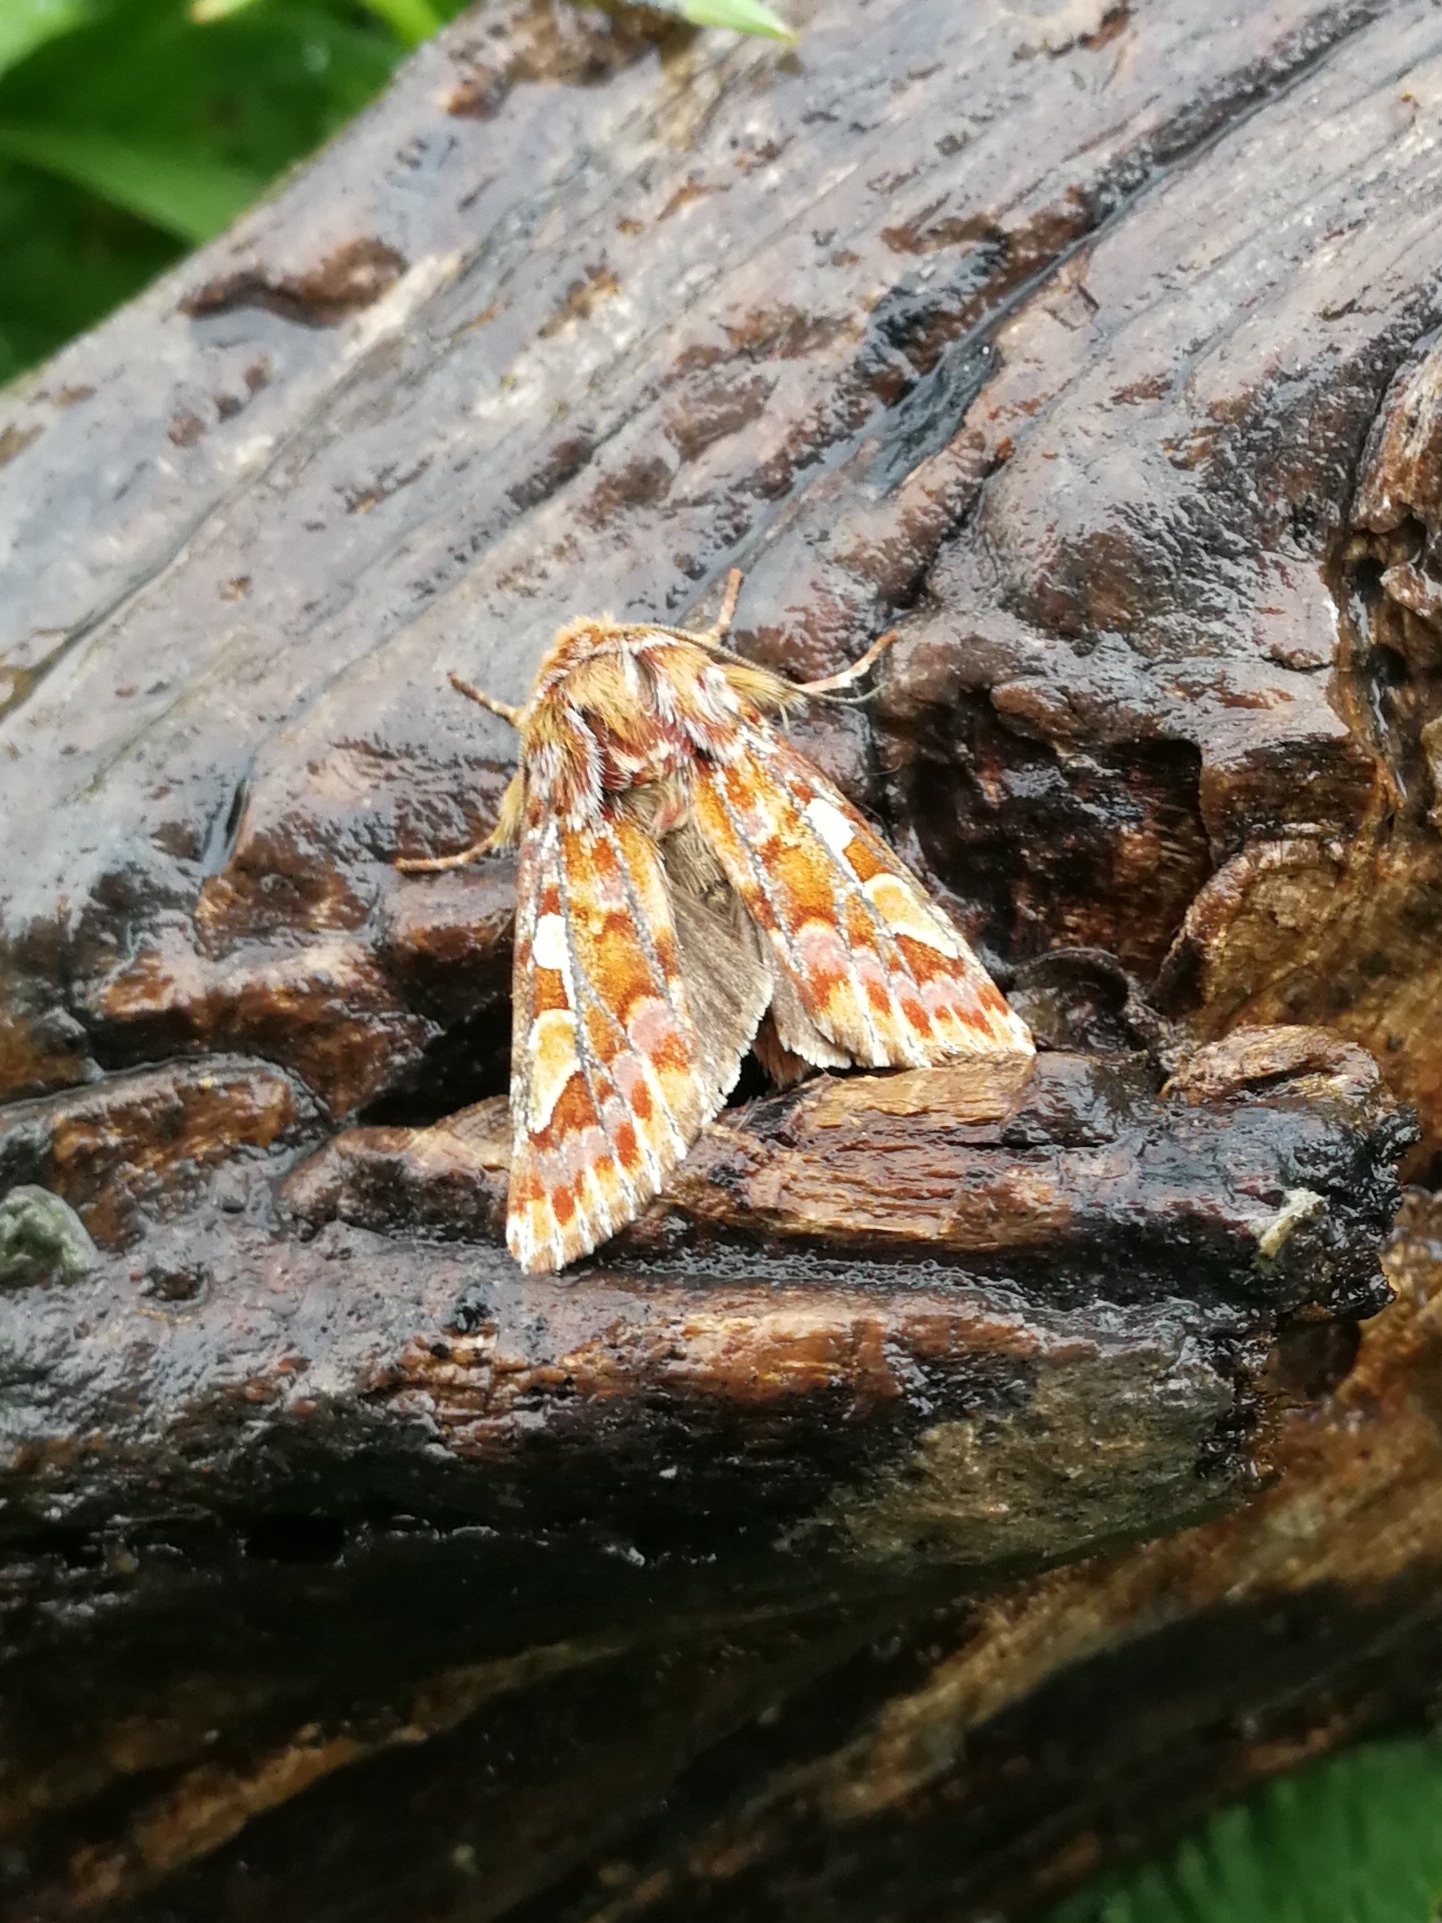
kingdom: Animalia
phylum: Arthropoda
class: Insecta
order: Lepidoptera
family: Noctuidae
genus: Panolis
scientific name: Panolis flammea
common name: Pine beauty
